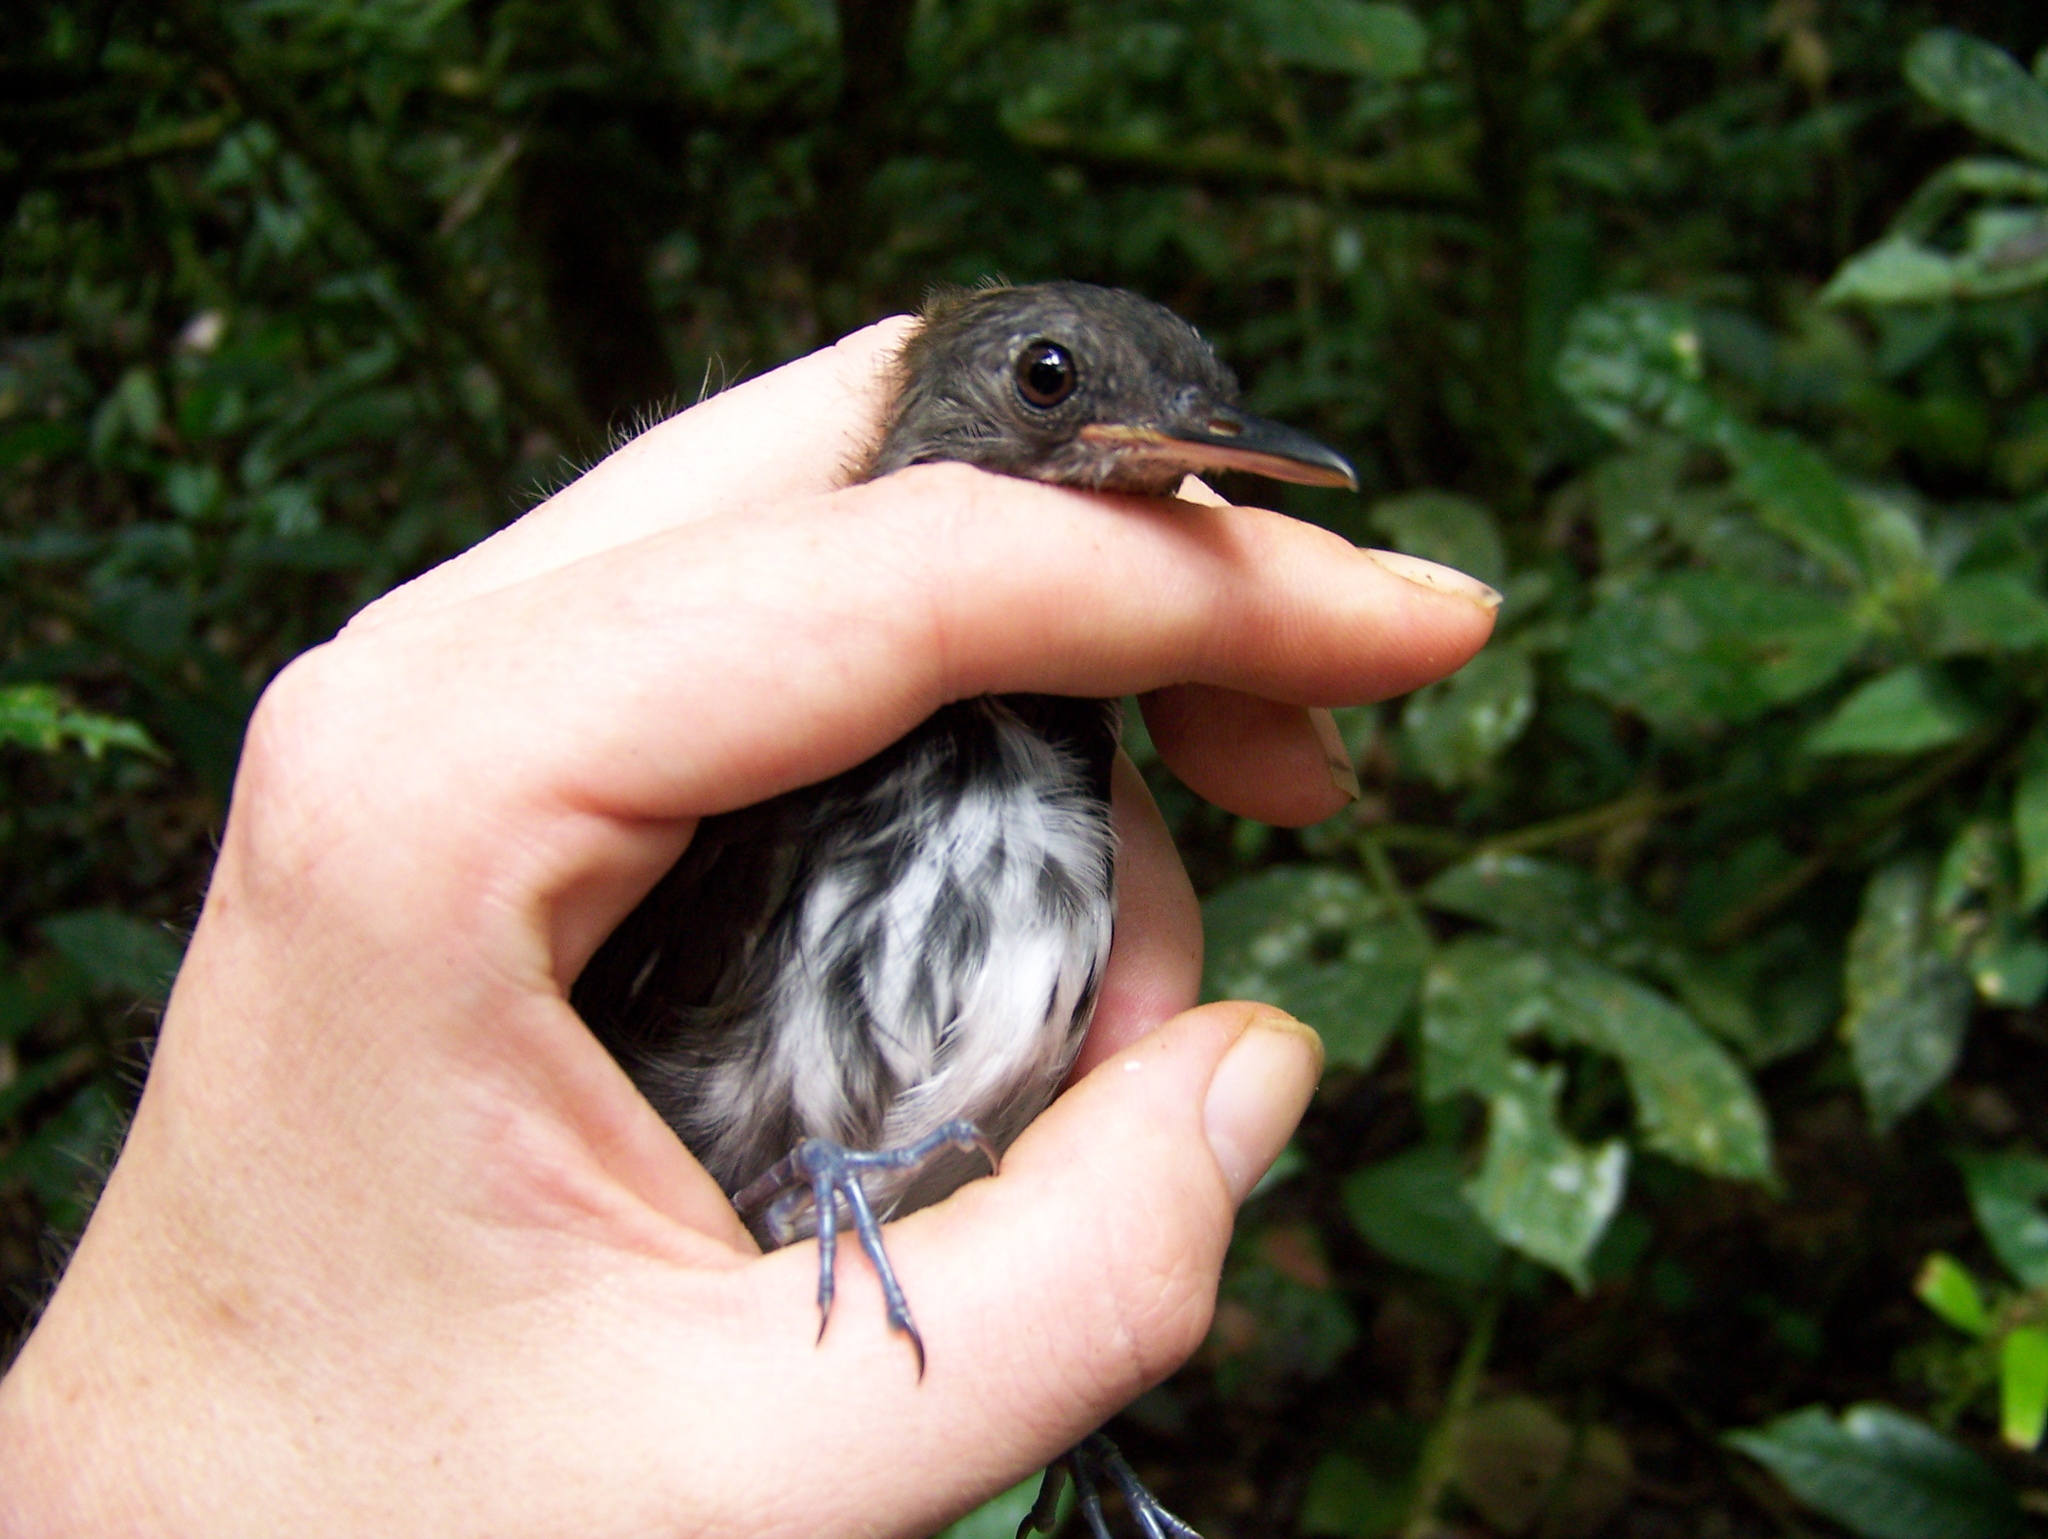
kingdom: Animalia
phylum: Chordata
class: Aves
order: Passeriformes
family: Tyrannidae
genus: Corythopis
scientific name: Corythopis torquatus
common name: Ringed antpipit
